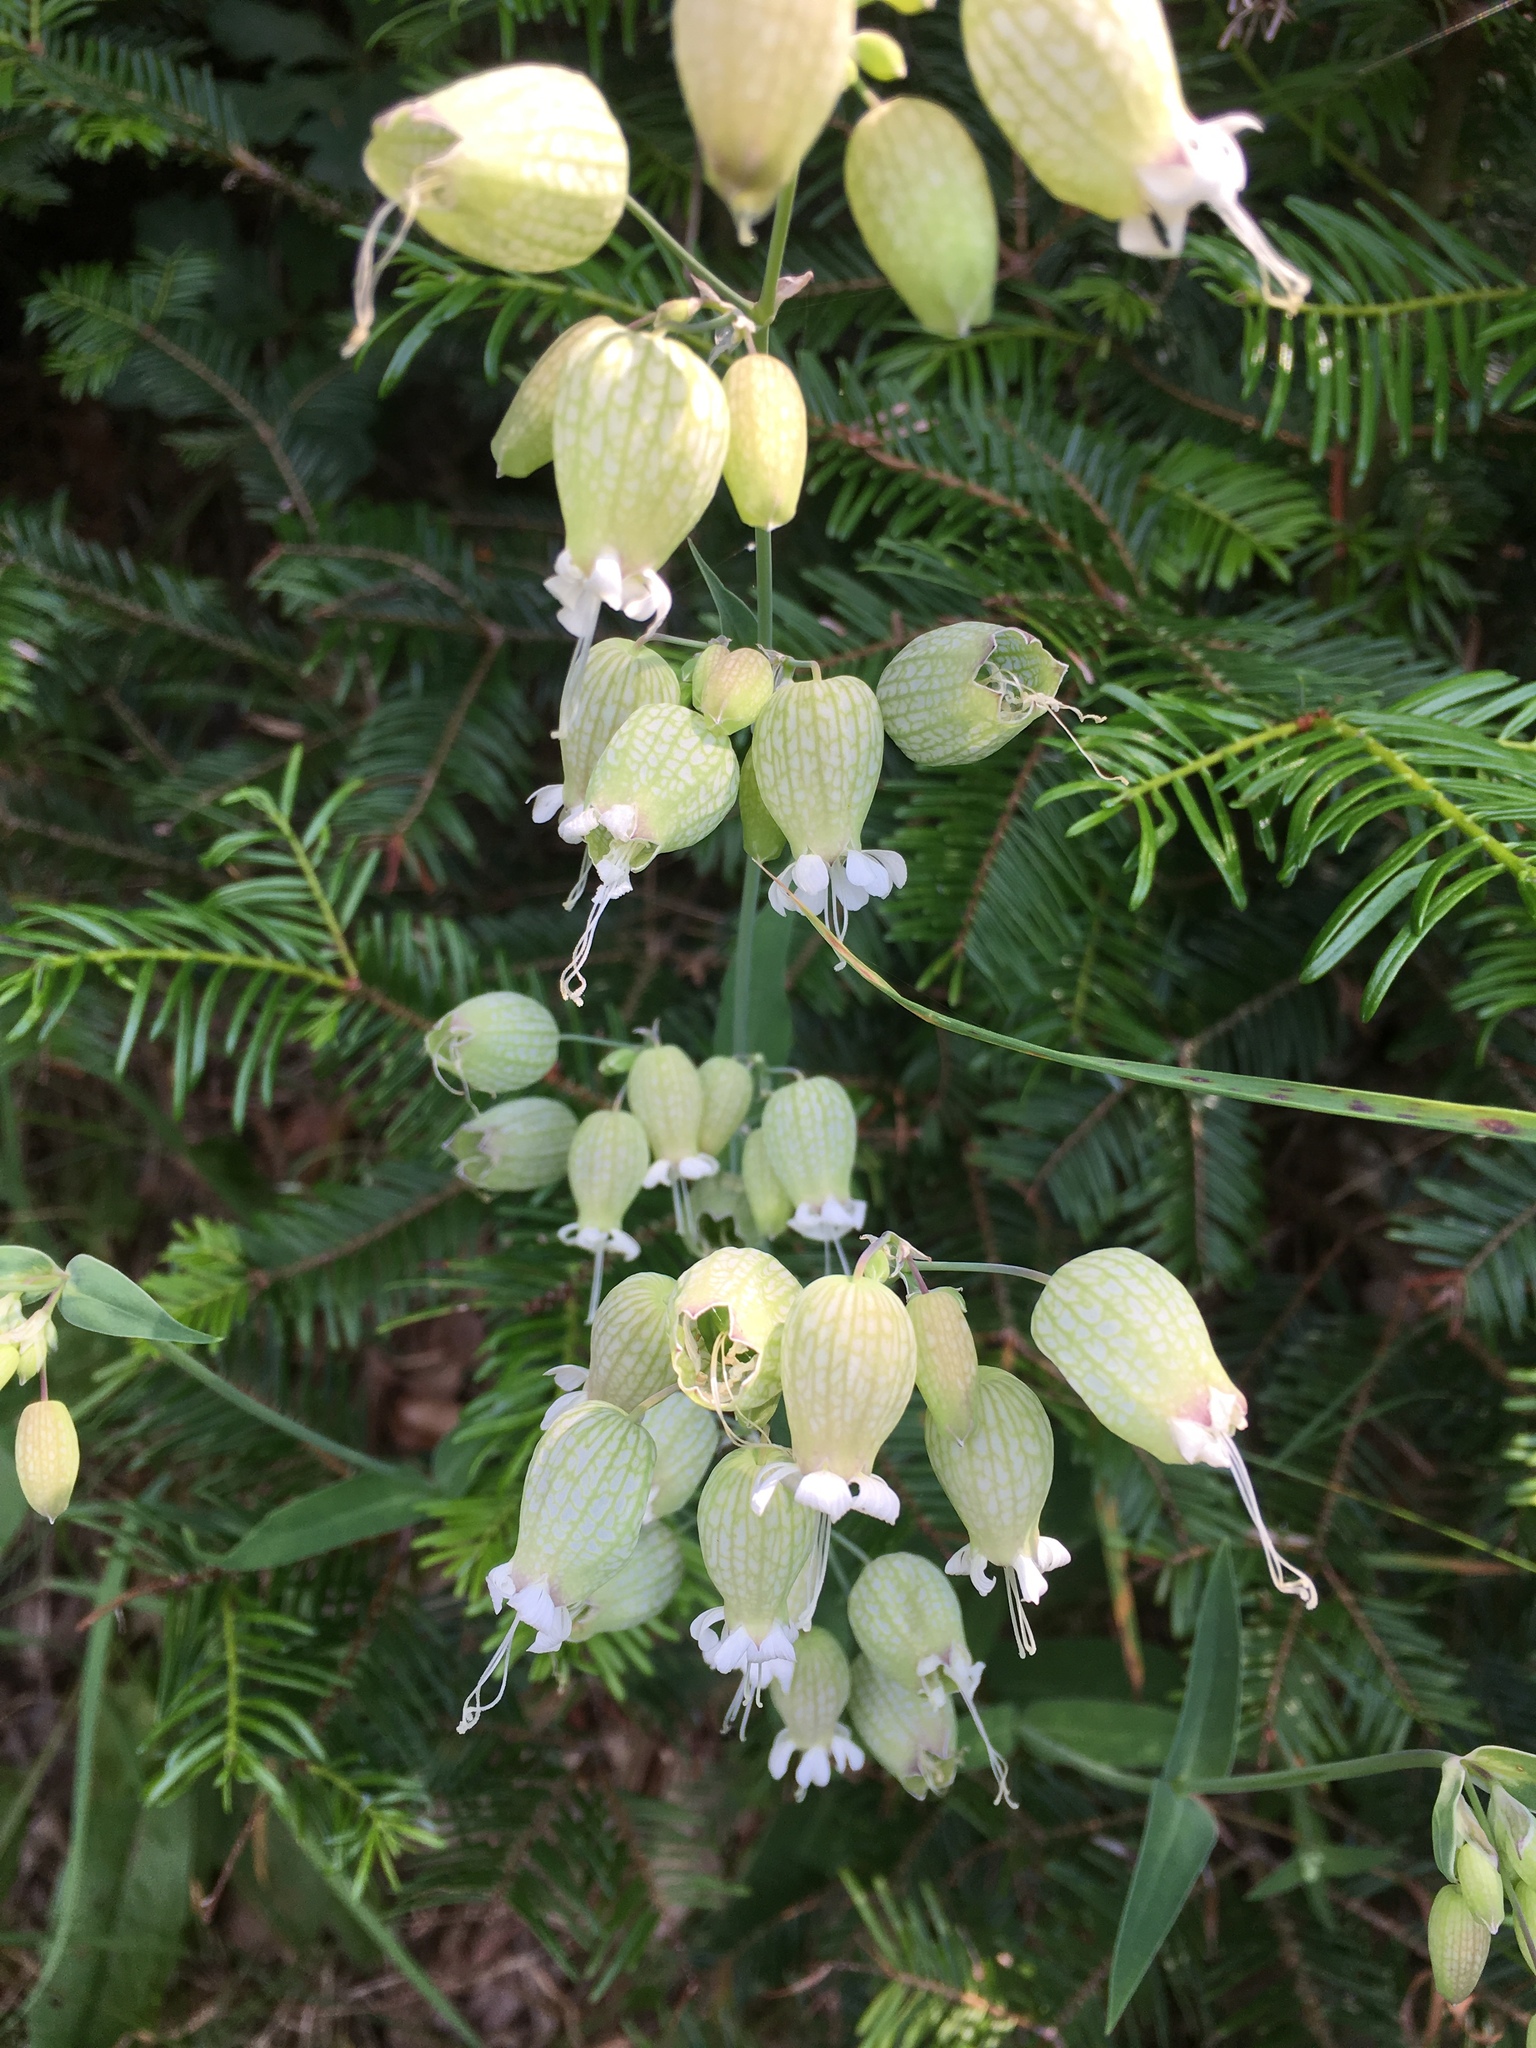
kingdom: Plantae
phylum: Tracheophyta
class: Magnoliopsida
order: Caryophyllales
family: Caryophyllaceae
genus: Silene
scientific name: Silene vulgaris
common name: Bladder campion
